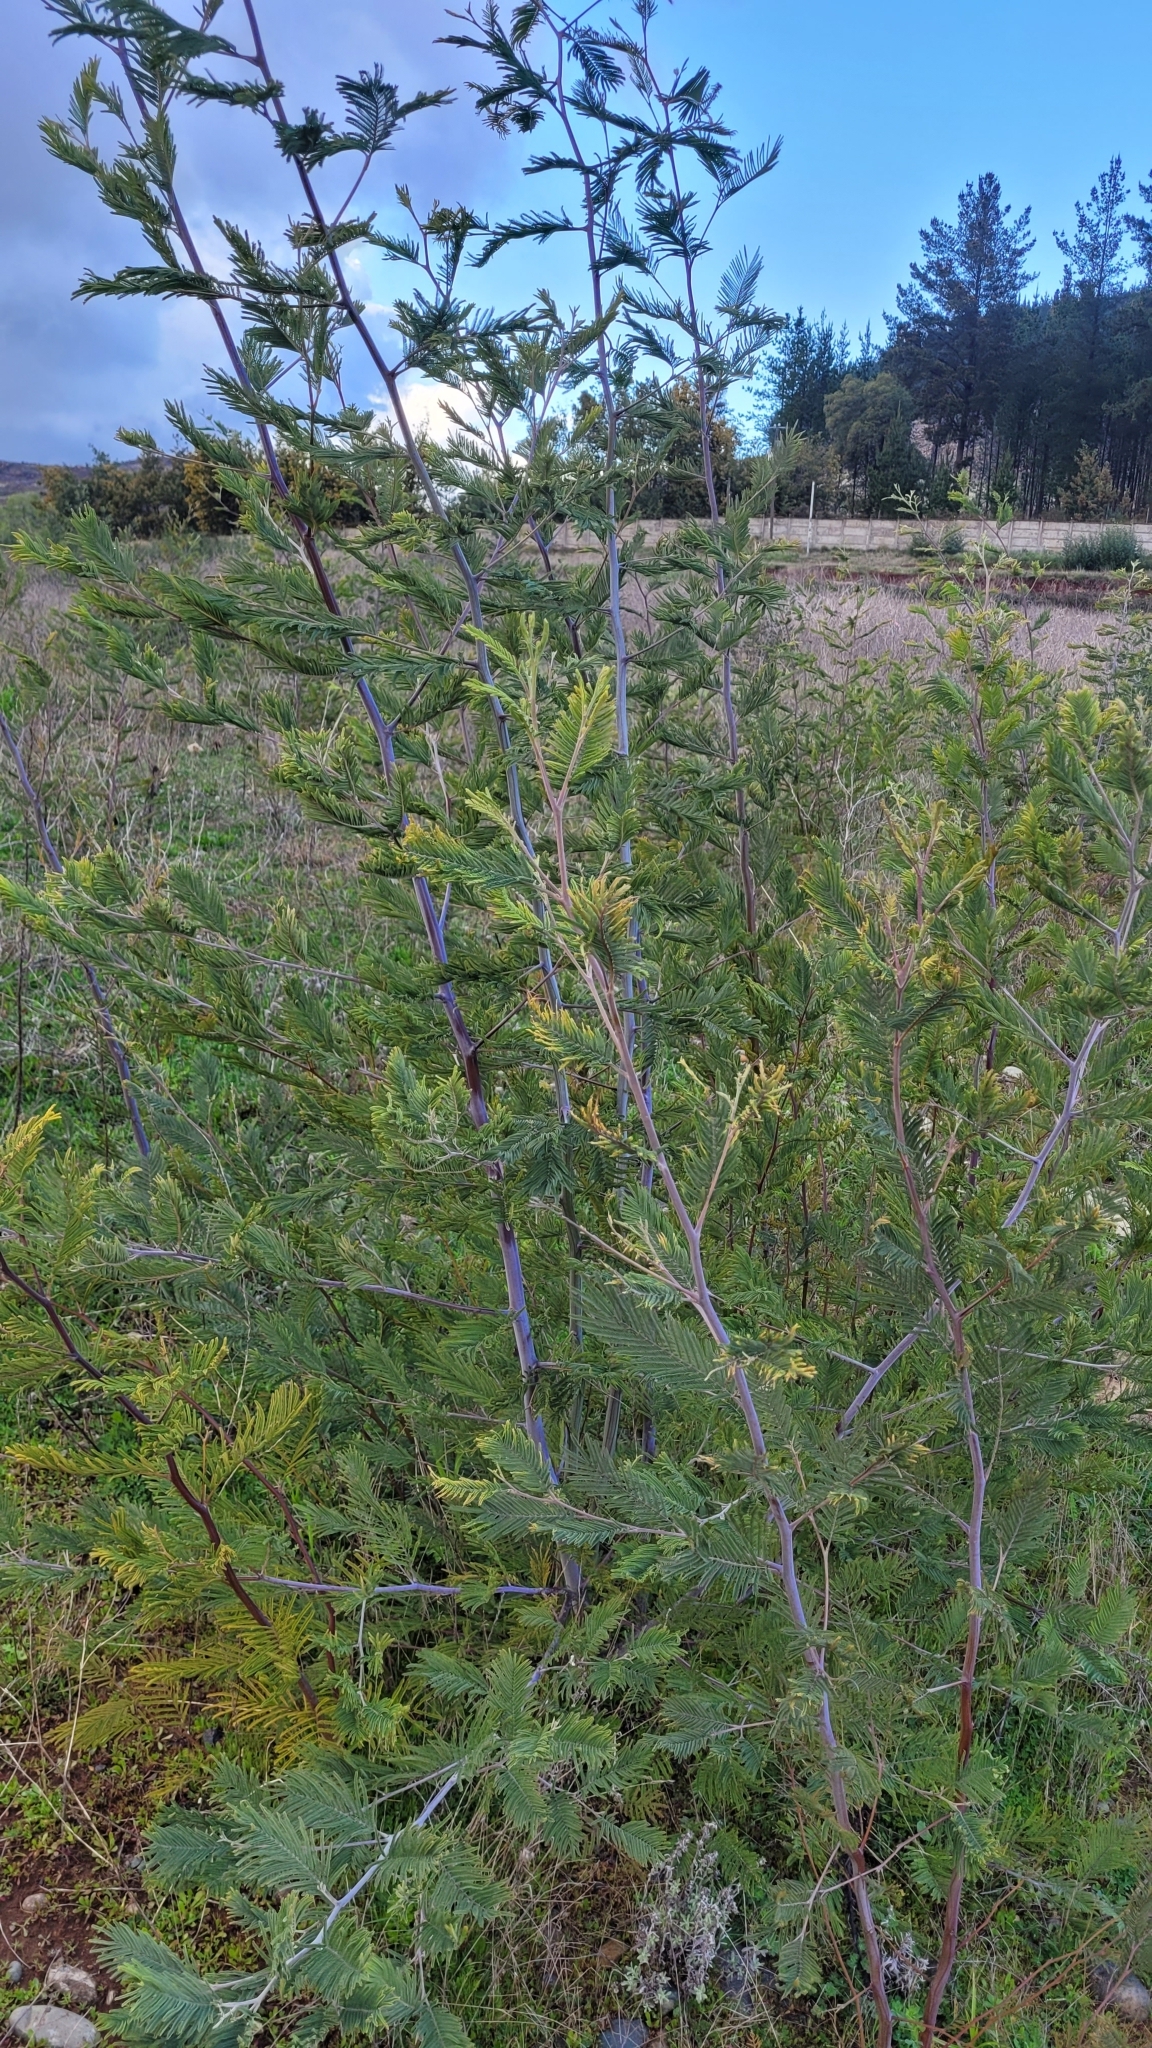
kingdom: Plantae
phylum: Tracheophyta
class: Magnoliopsida
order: Fabales
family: Fabaceae
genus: Acacia
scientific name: Acacia dealbata
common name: Silver wattle
